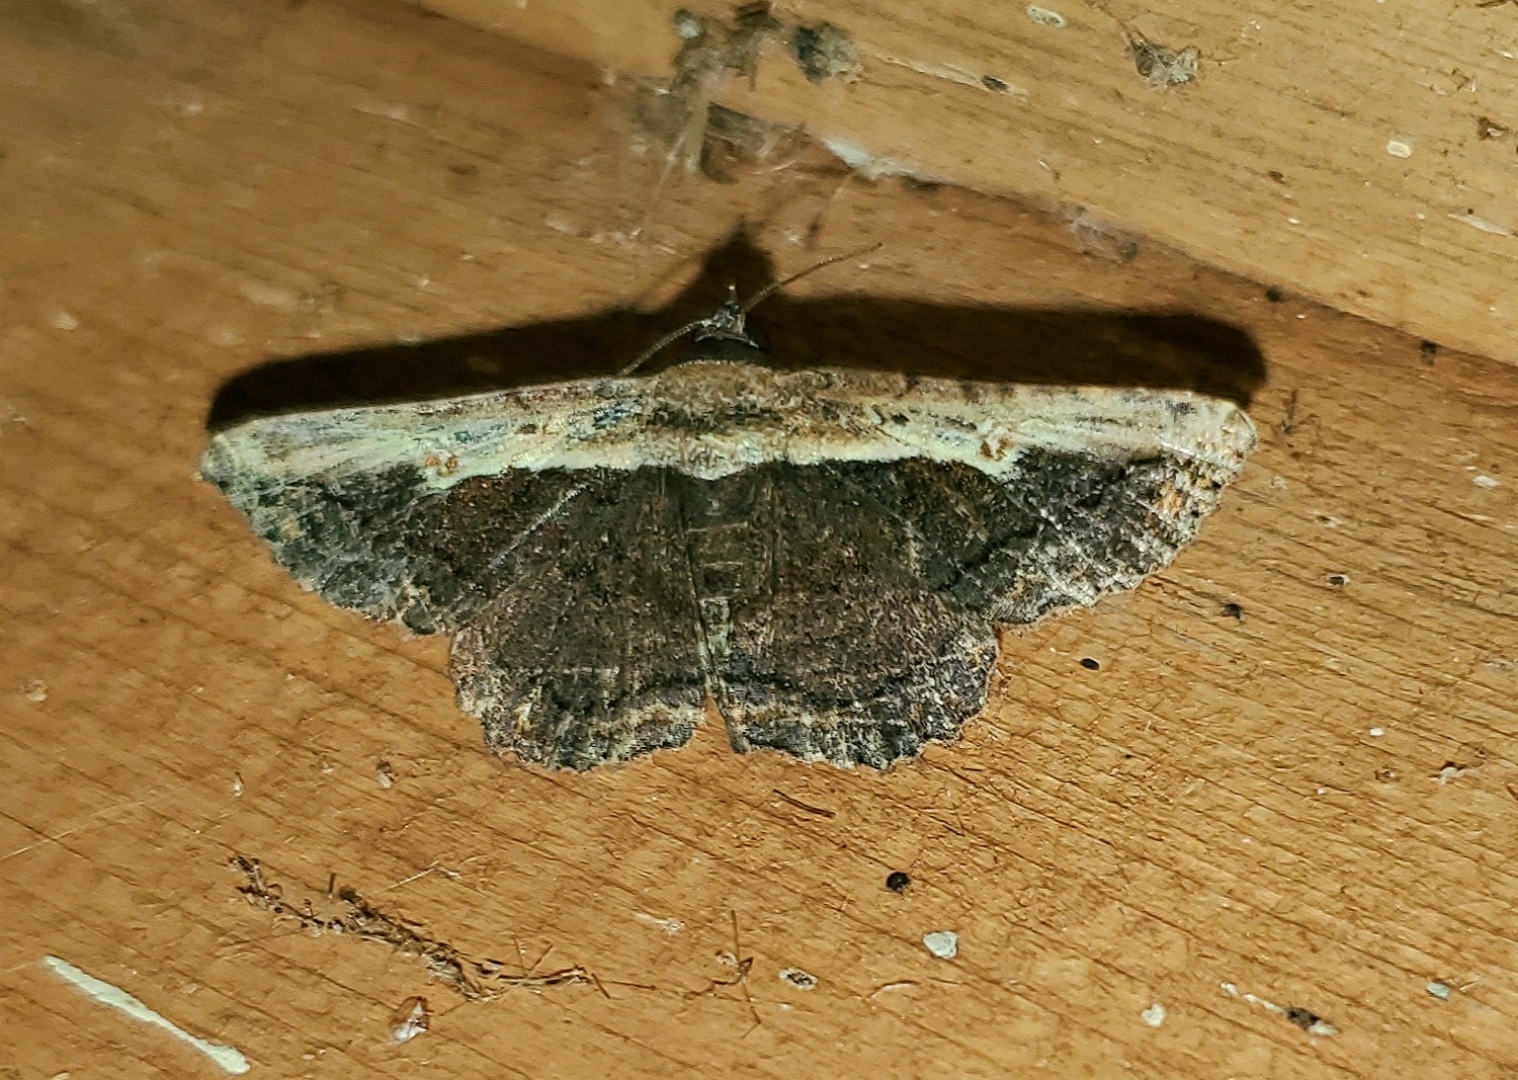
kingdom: Animalia
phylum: Arthropoda
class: Insecta
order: Lepidoptera
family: Erebidae
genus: Selenisa
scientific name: Selenisa sueroides
